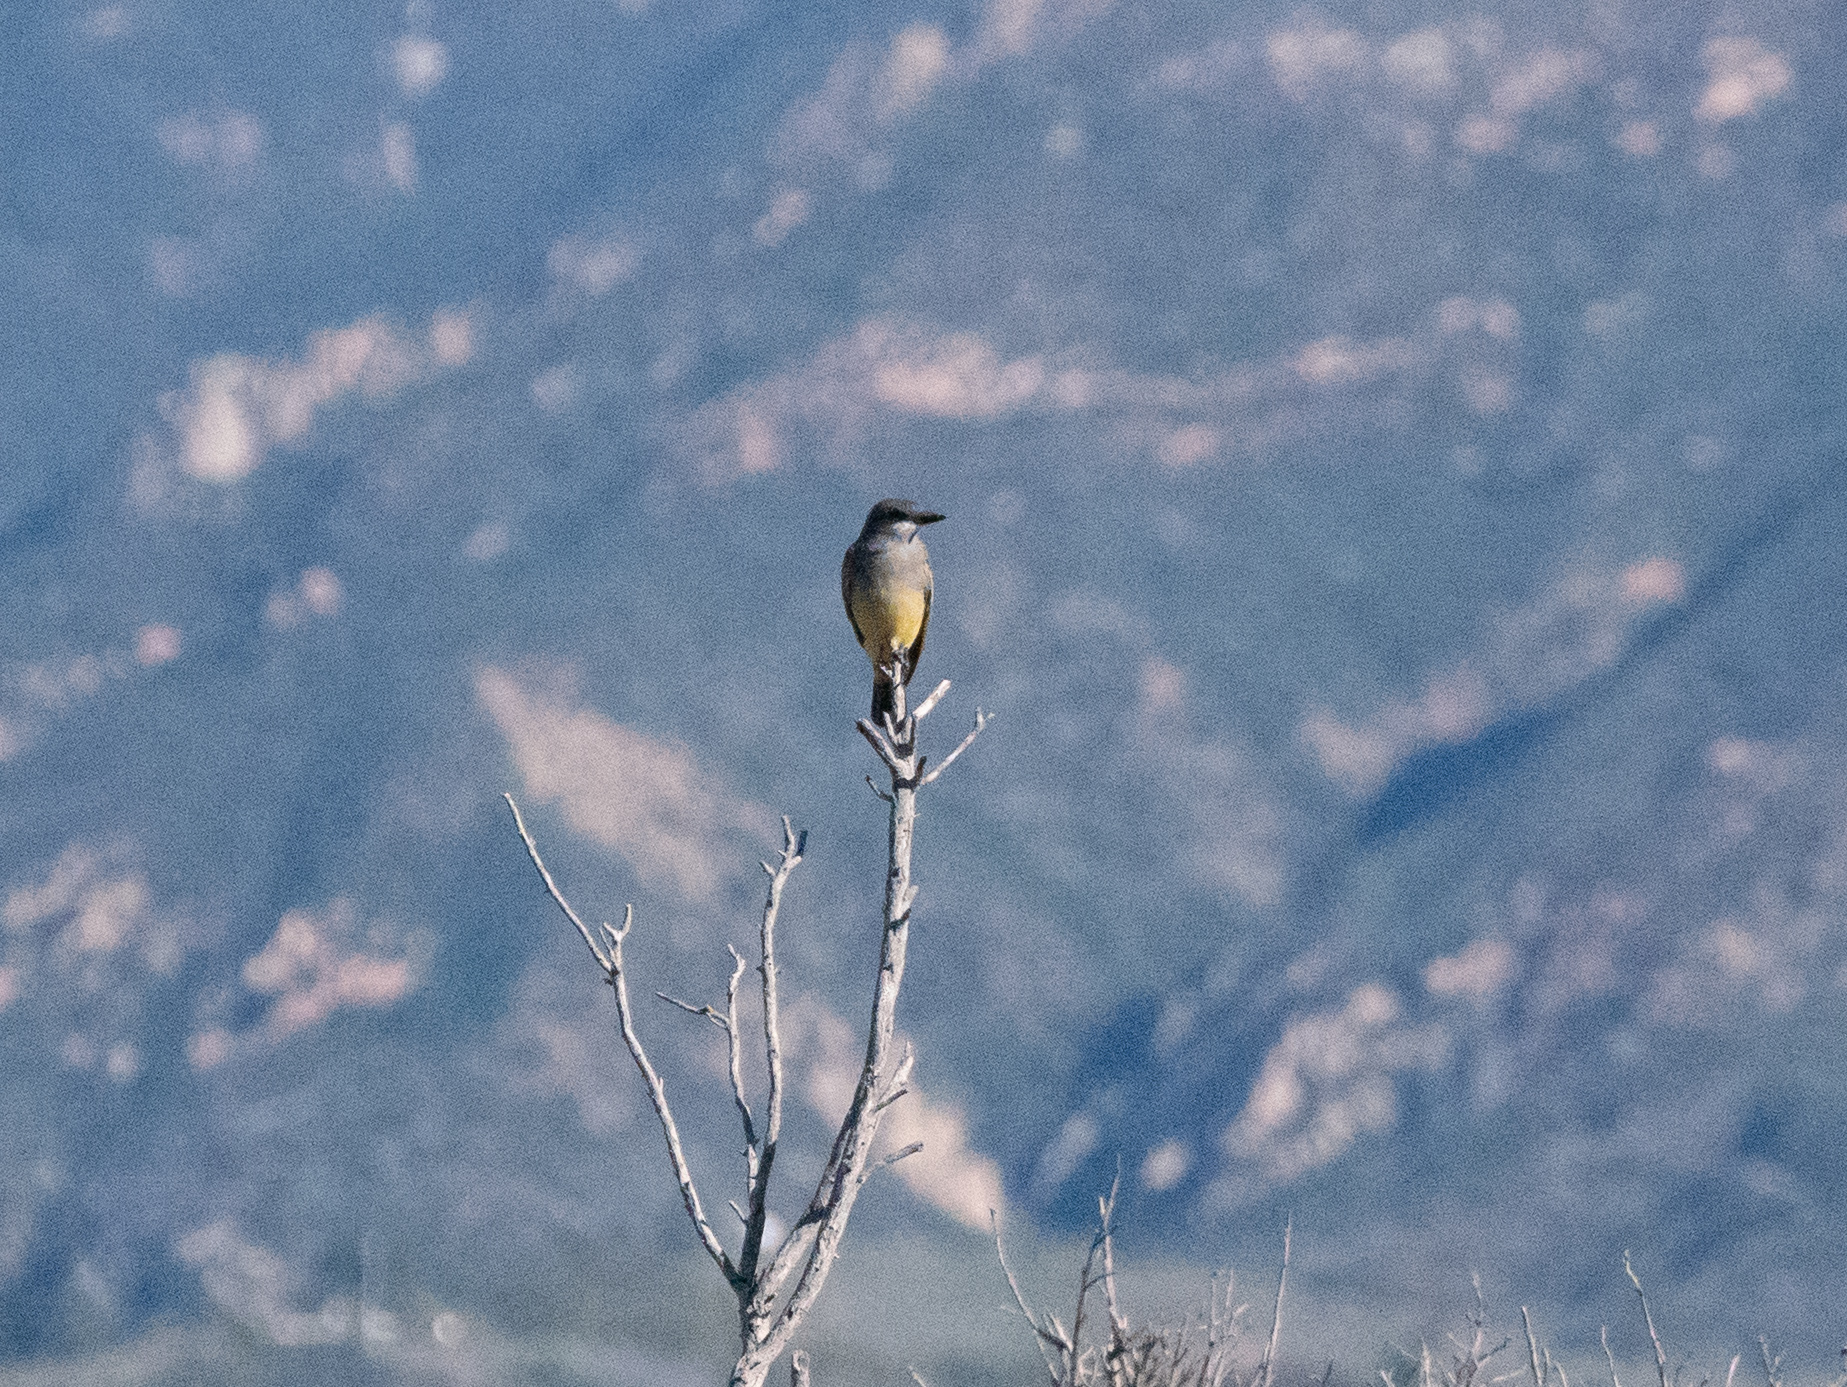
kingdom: Animalia
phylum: Chordata
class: Aves
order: Passeriformes
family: Tyrannidae
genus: Tyrannus
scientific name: Tyrannus vociferans
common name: Cassin's kingbird
